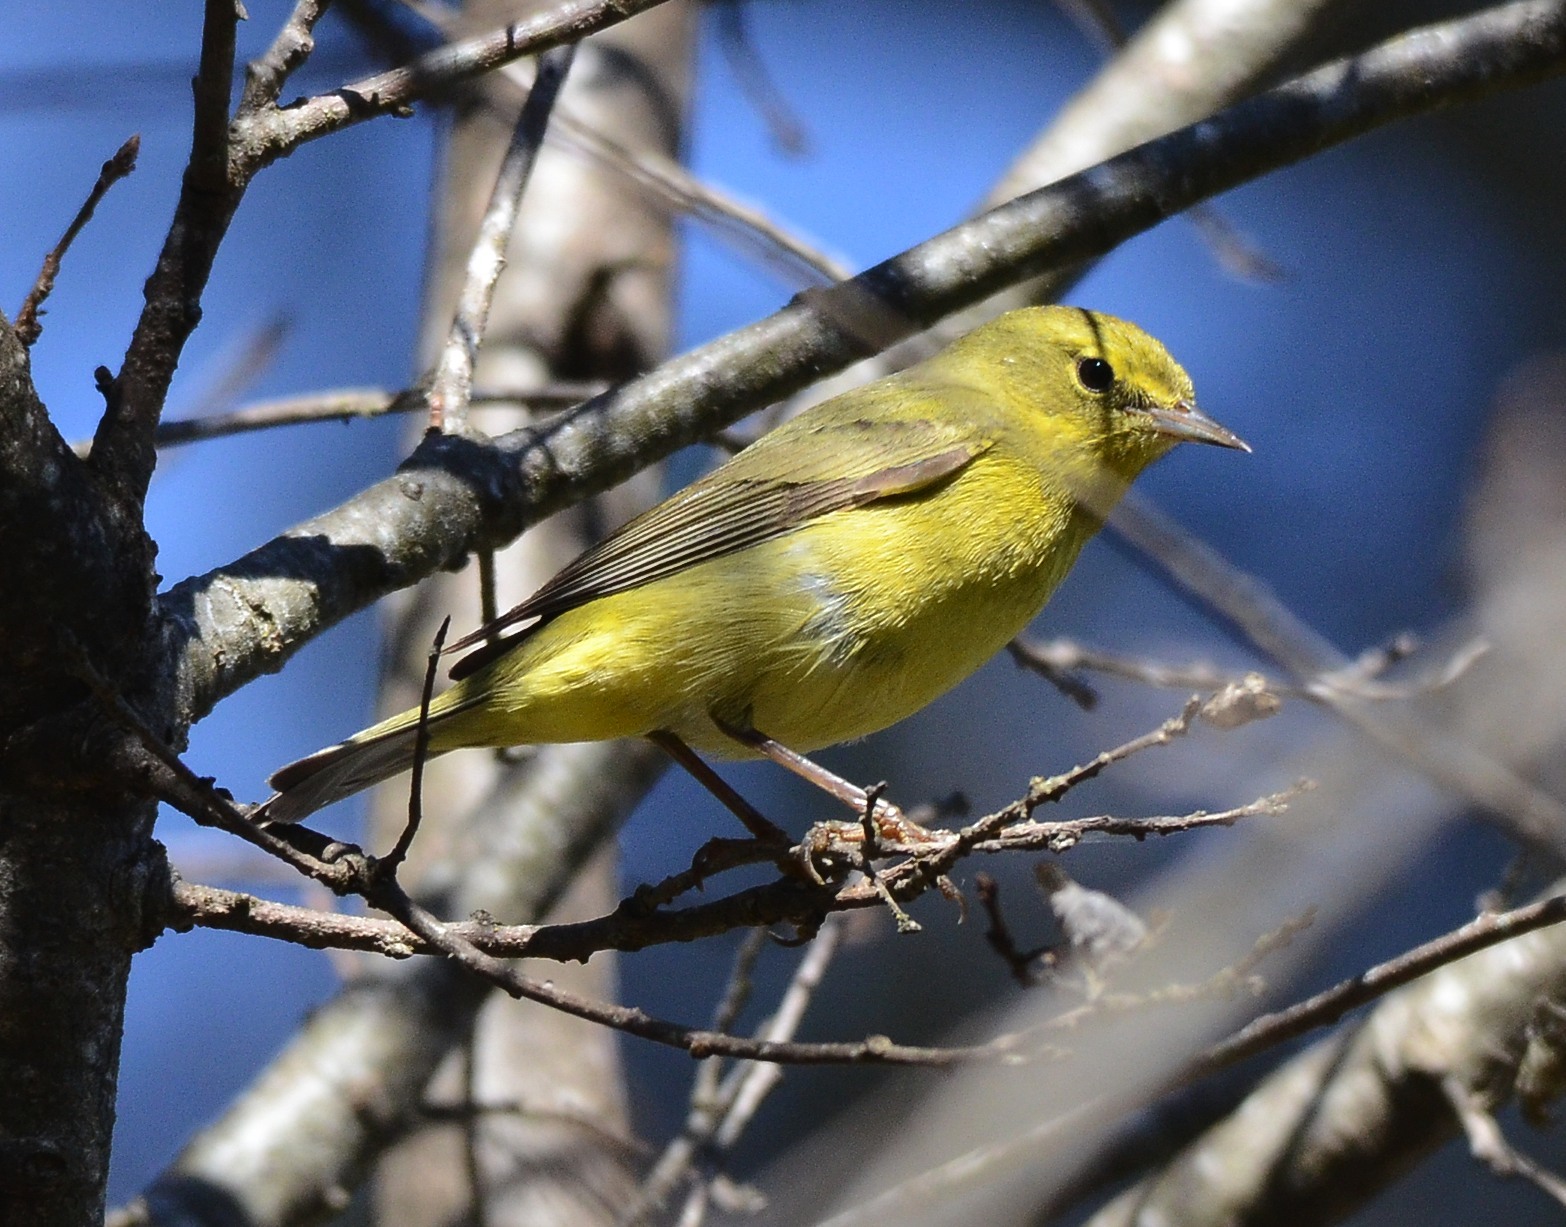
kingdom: Animalia
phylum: Chordata
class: Aves
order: Passeriformes
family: Parulidae
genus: Leiothlypis
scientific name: Leiothlypis celata
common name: Orange-crowned warbler
